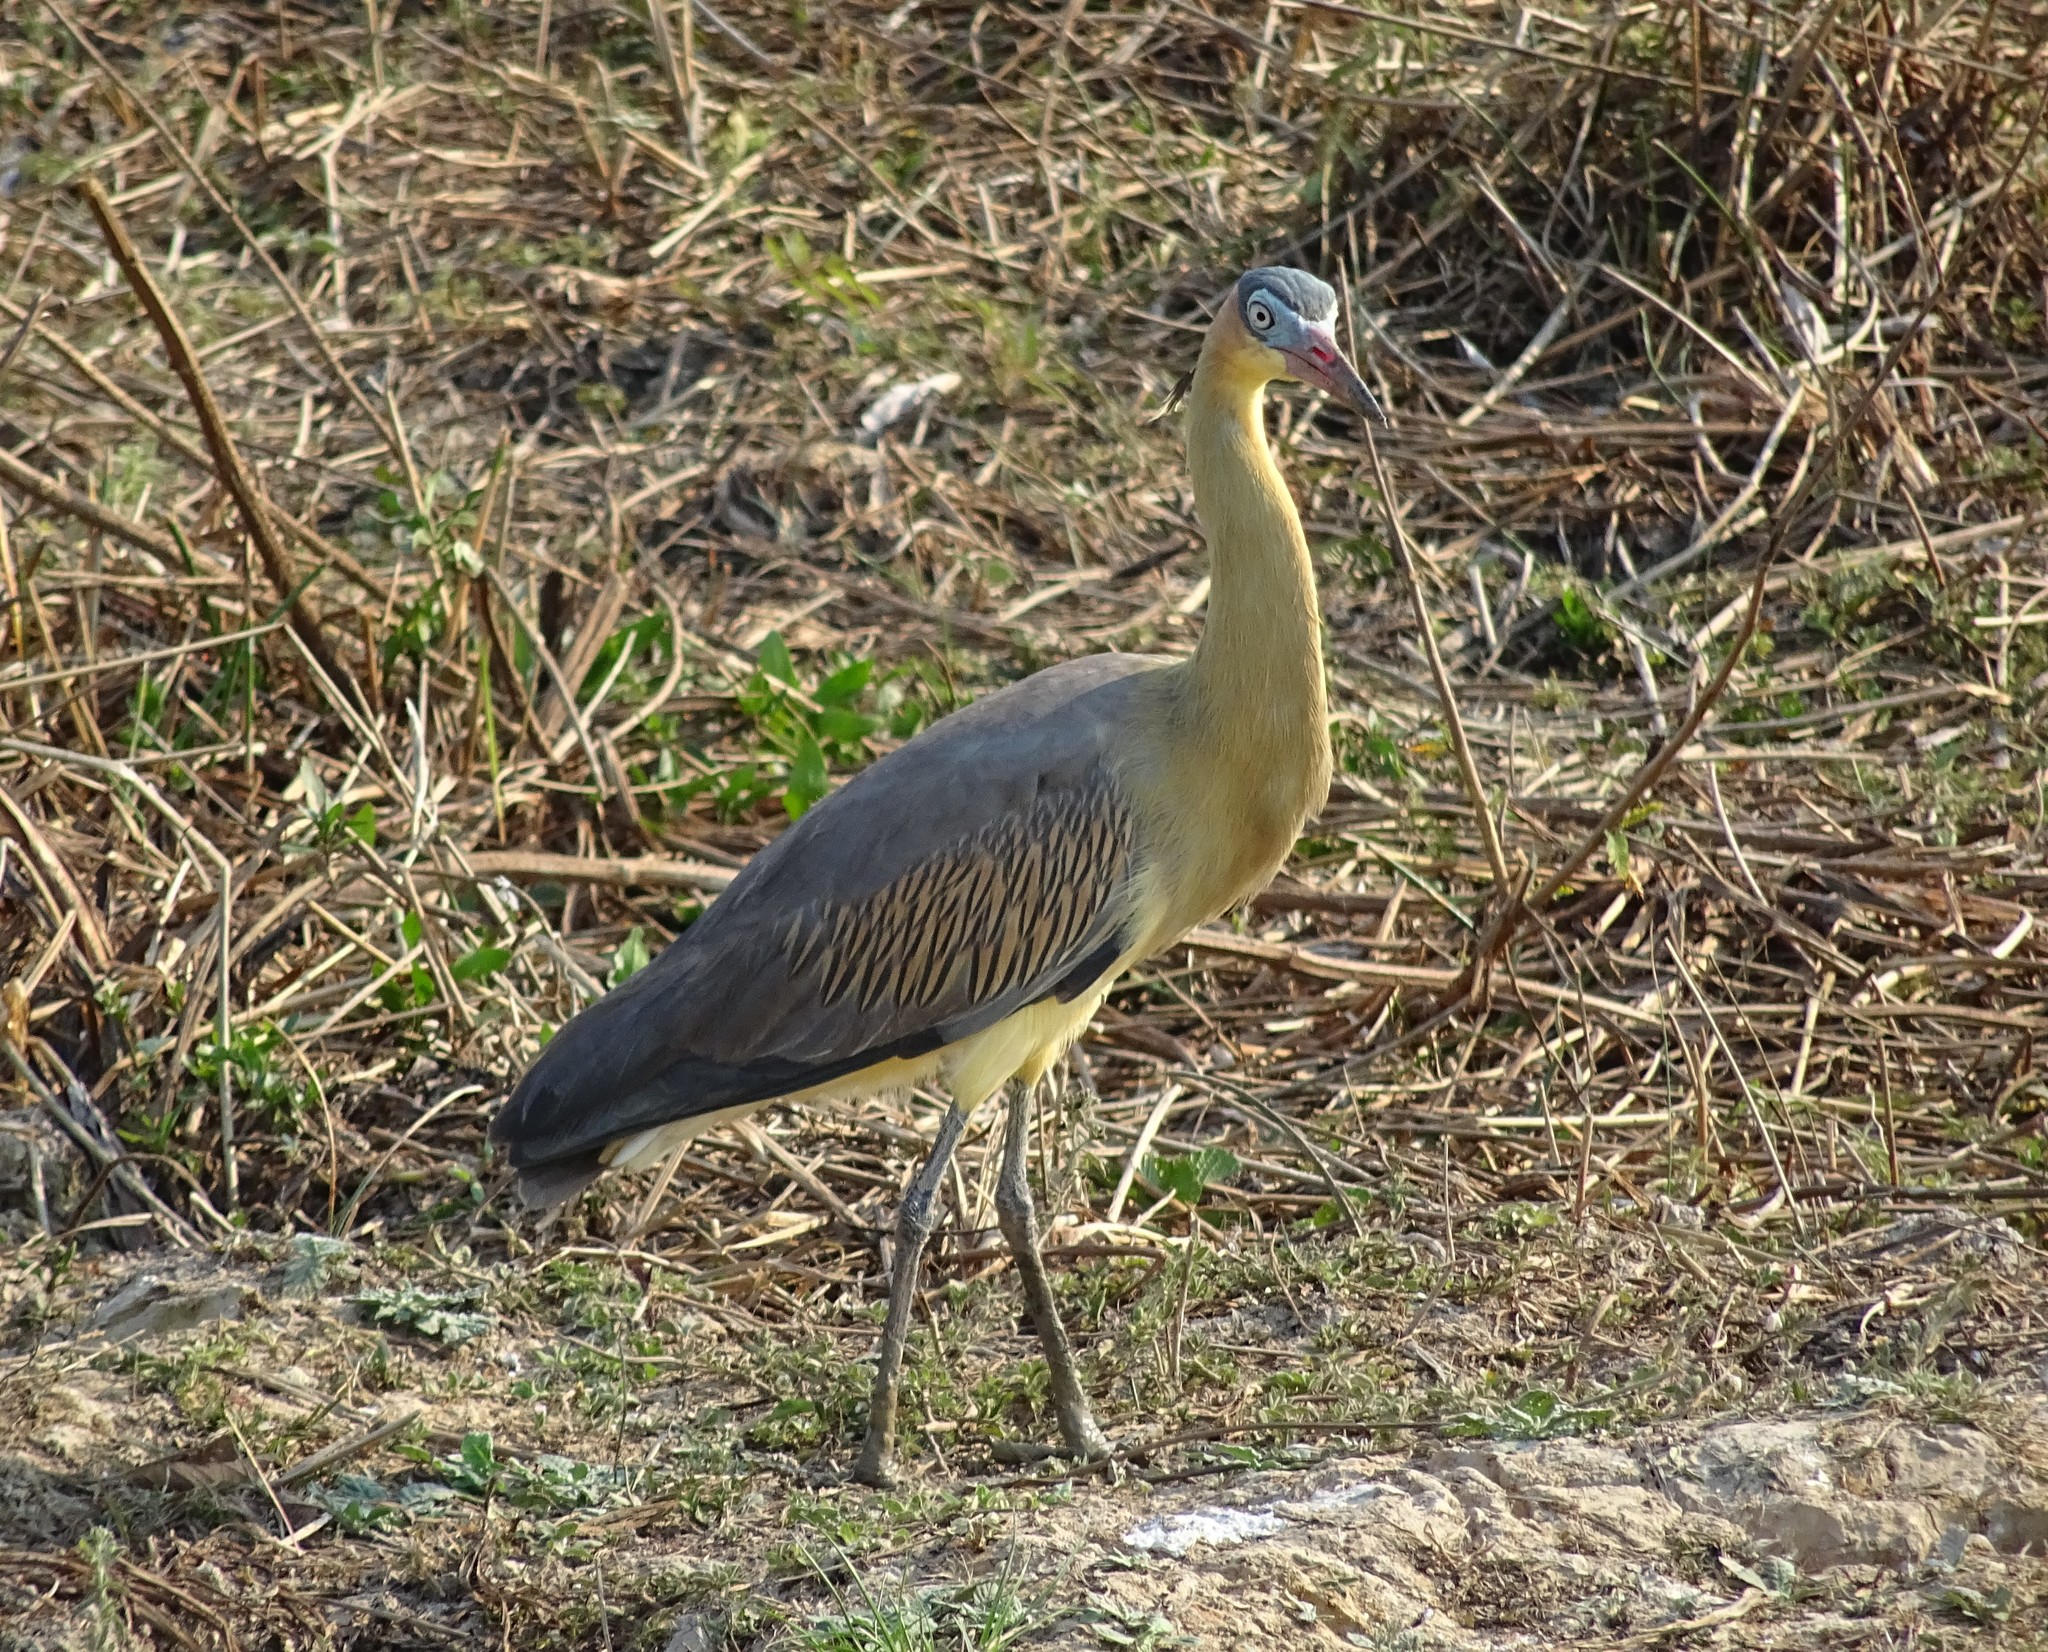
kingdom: Animalia
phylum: Chordata
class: Aves
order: Pelecaniformes
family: Ardeidae
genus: Syrigma
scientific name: Syrigma sibilatrix
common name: Whistling heron
